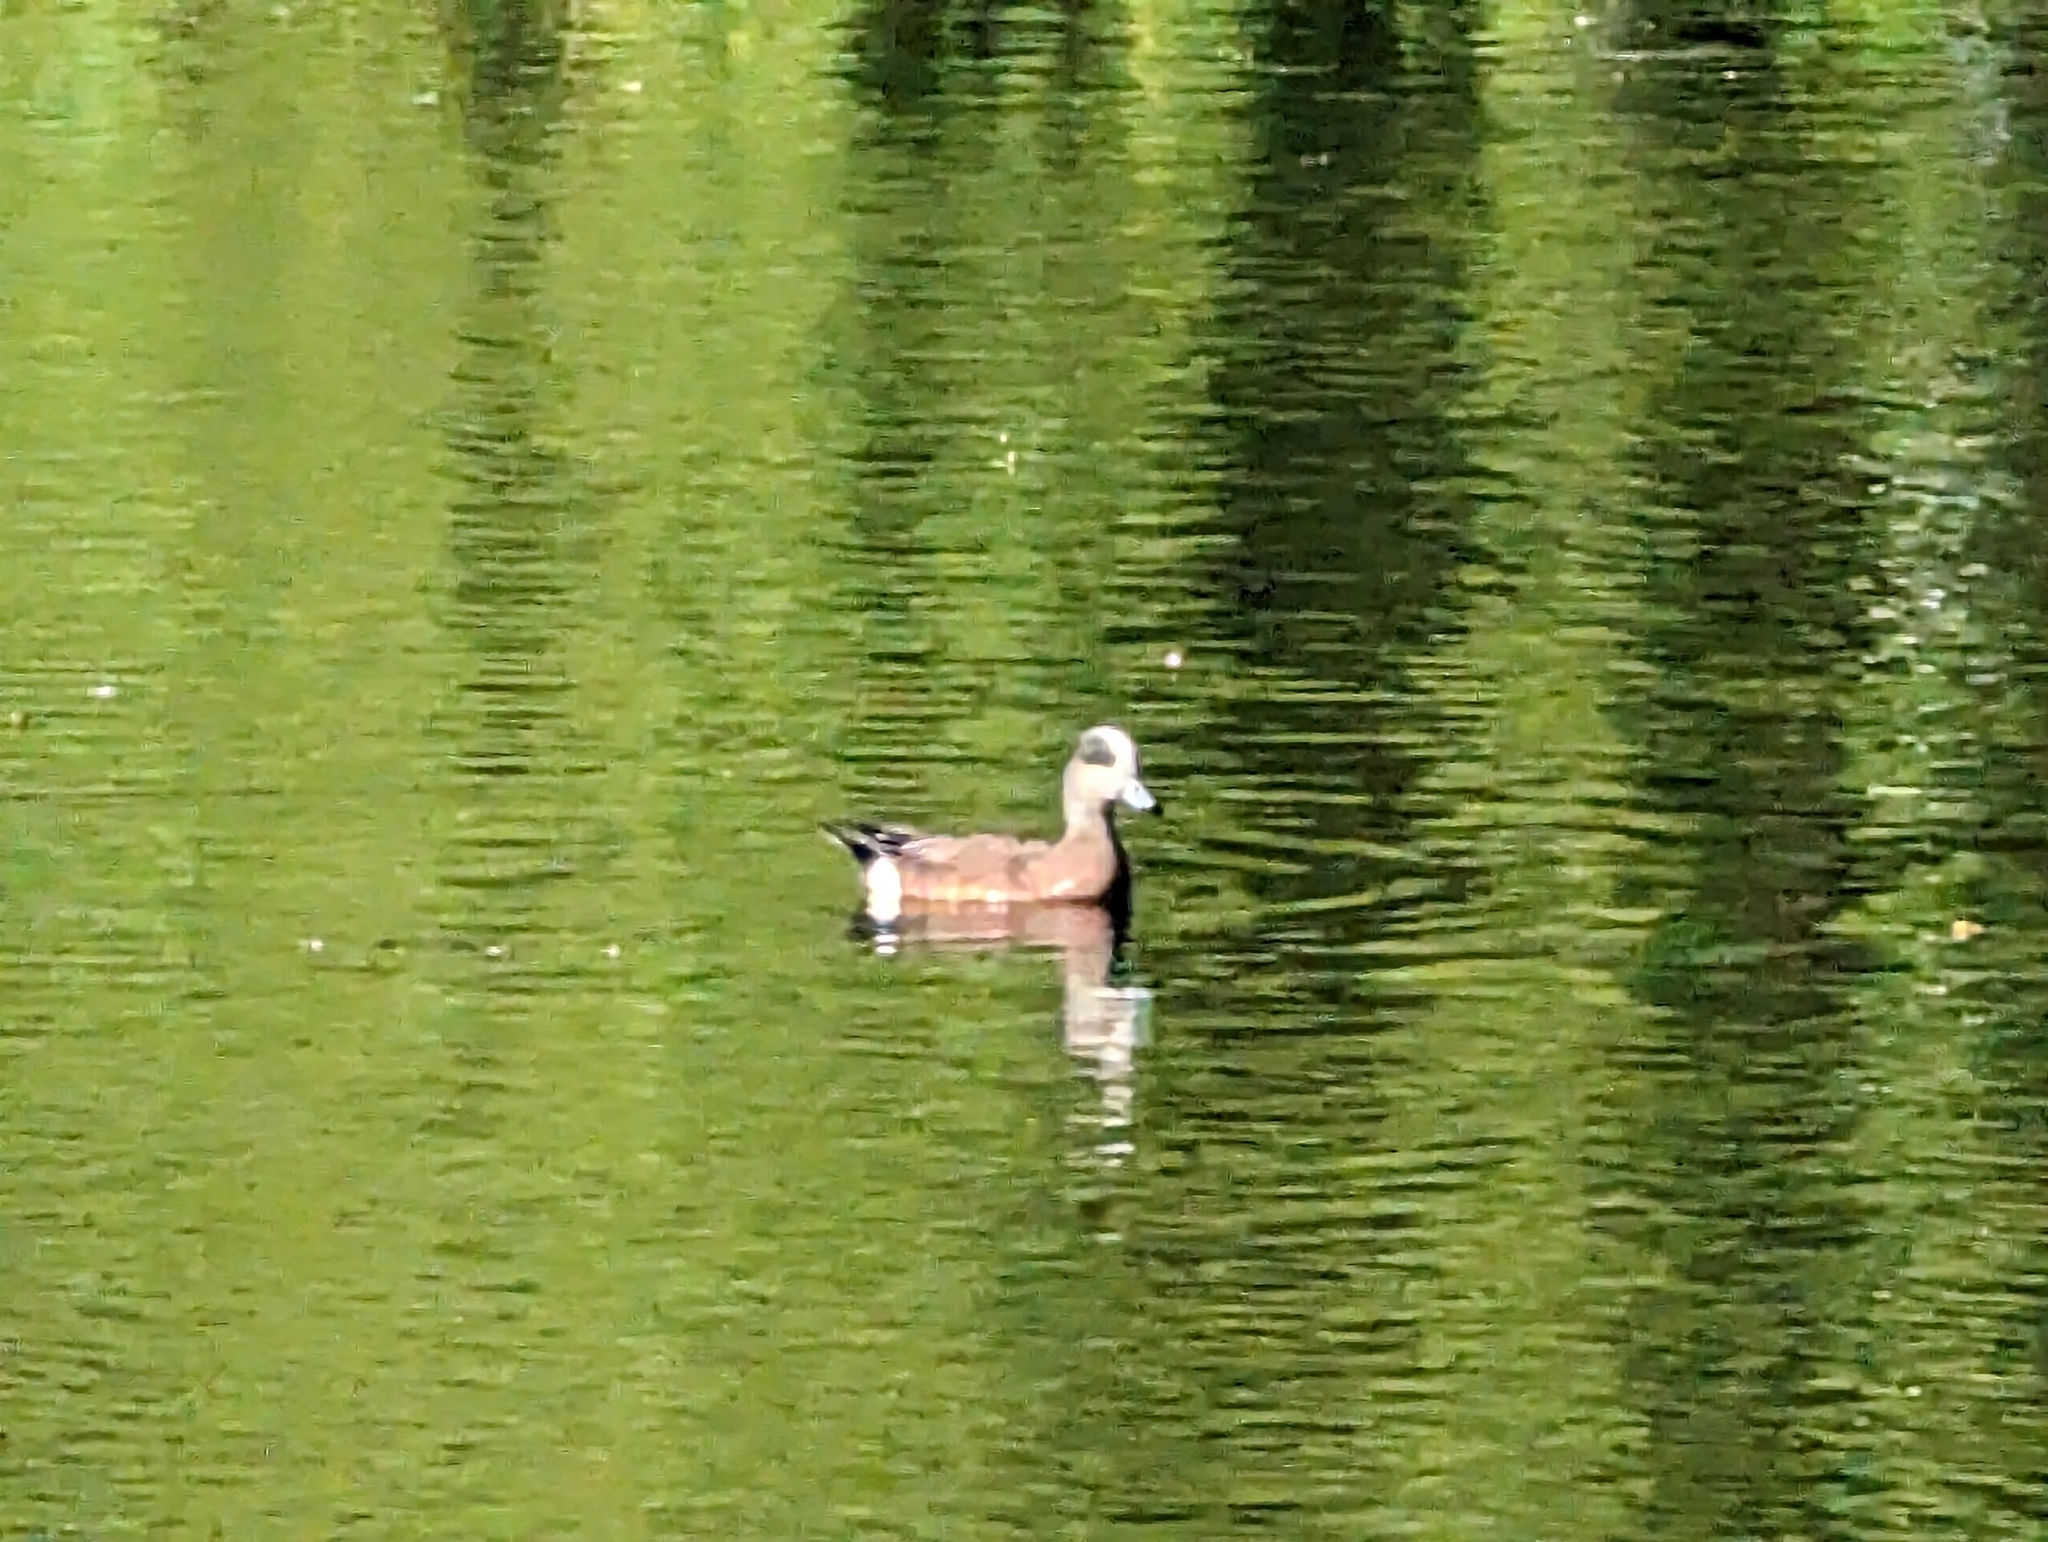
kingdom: Animalia
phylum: Chordata
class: Aves
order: Anseriformes
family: Anatidae
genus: Mareca
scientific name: Mareca americana
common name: American wigeon
